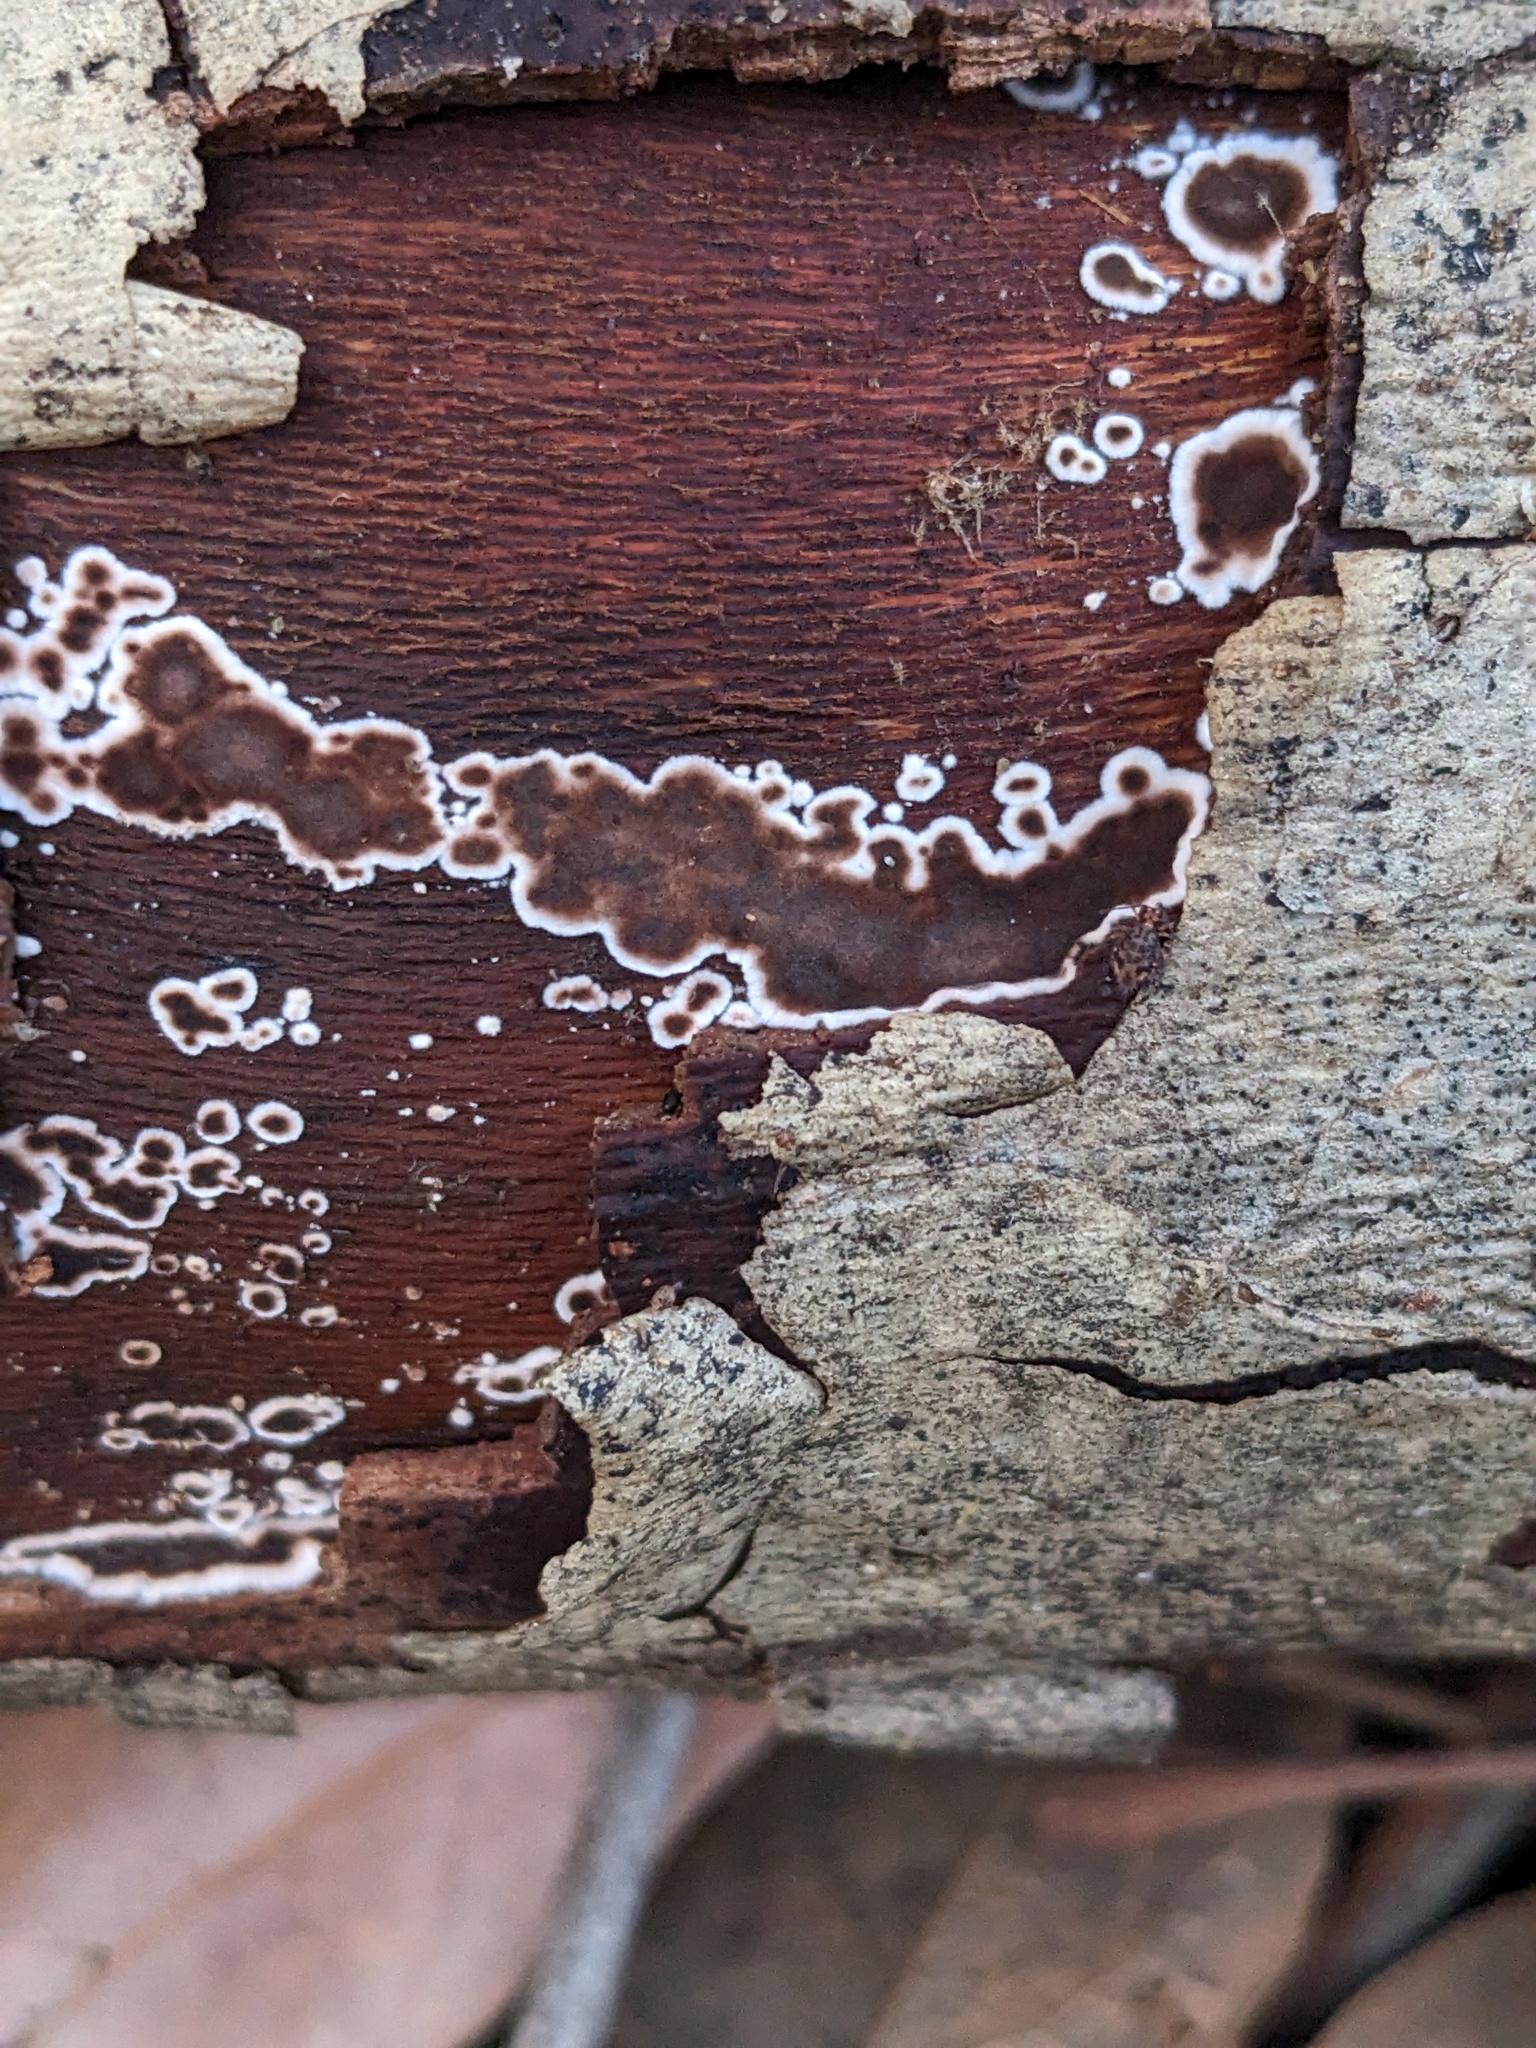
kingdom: Fungi
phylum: Basidiomycota
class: Agaricomycetes
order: Russulales
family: Peniophoraceae
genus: Peniophora
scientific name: Peniophora albobadia
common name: Giraffe spots
